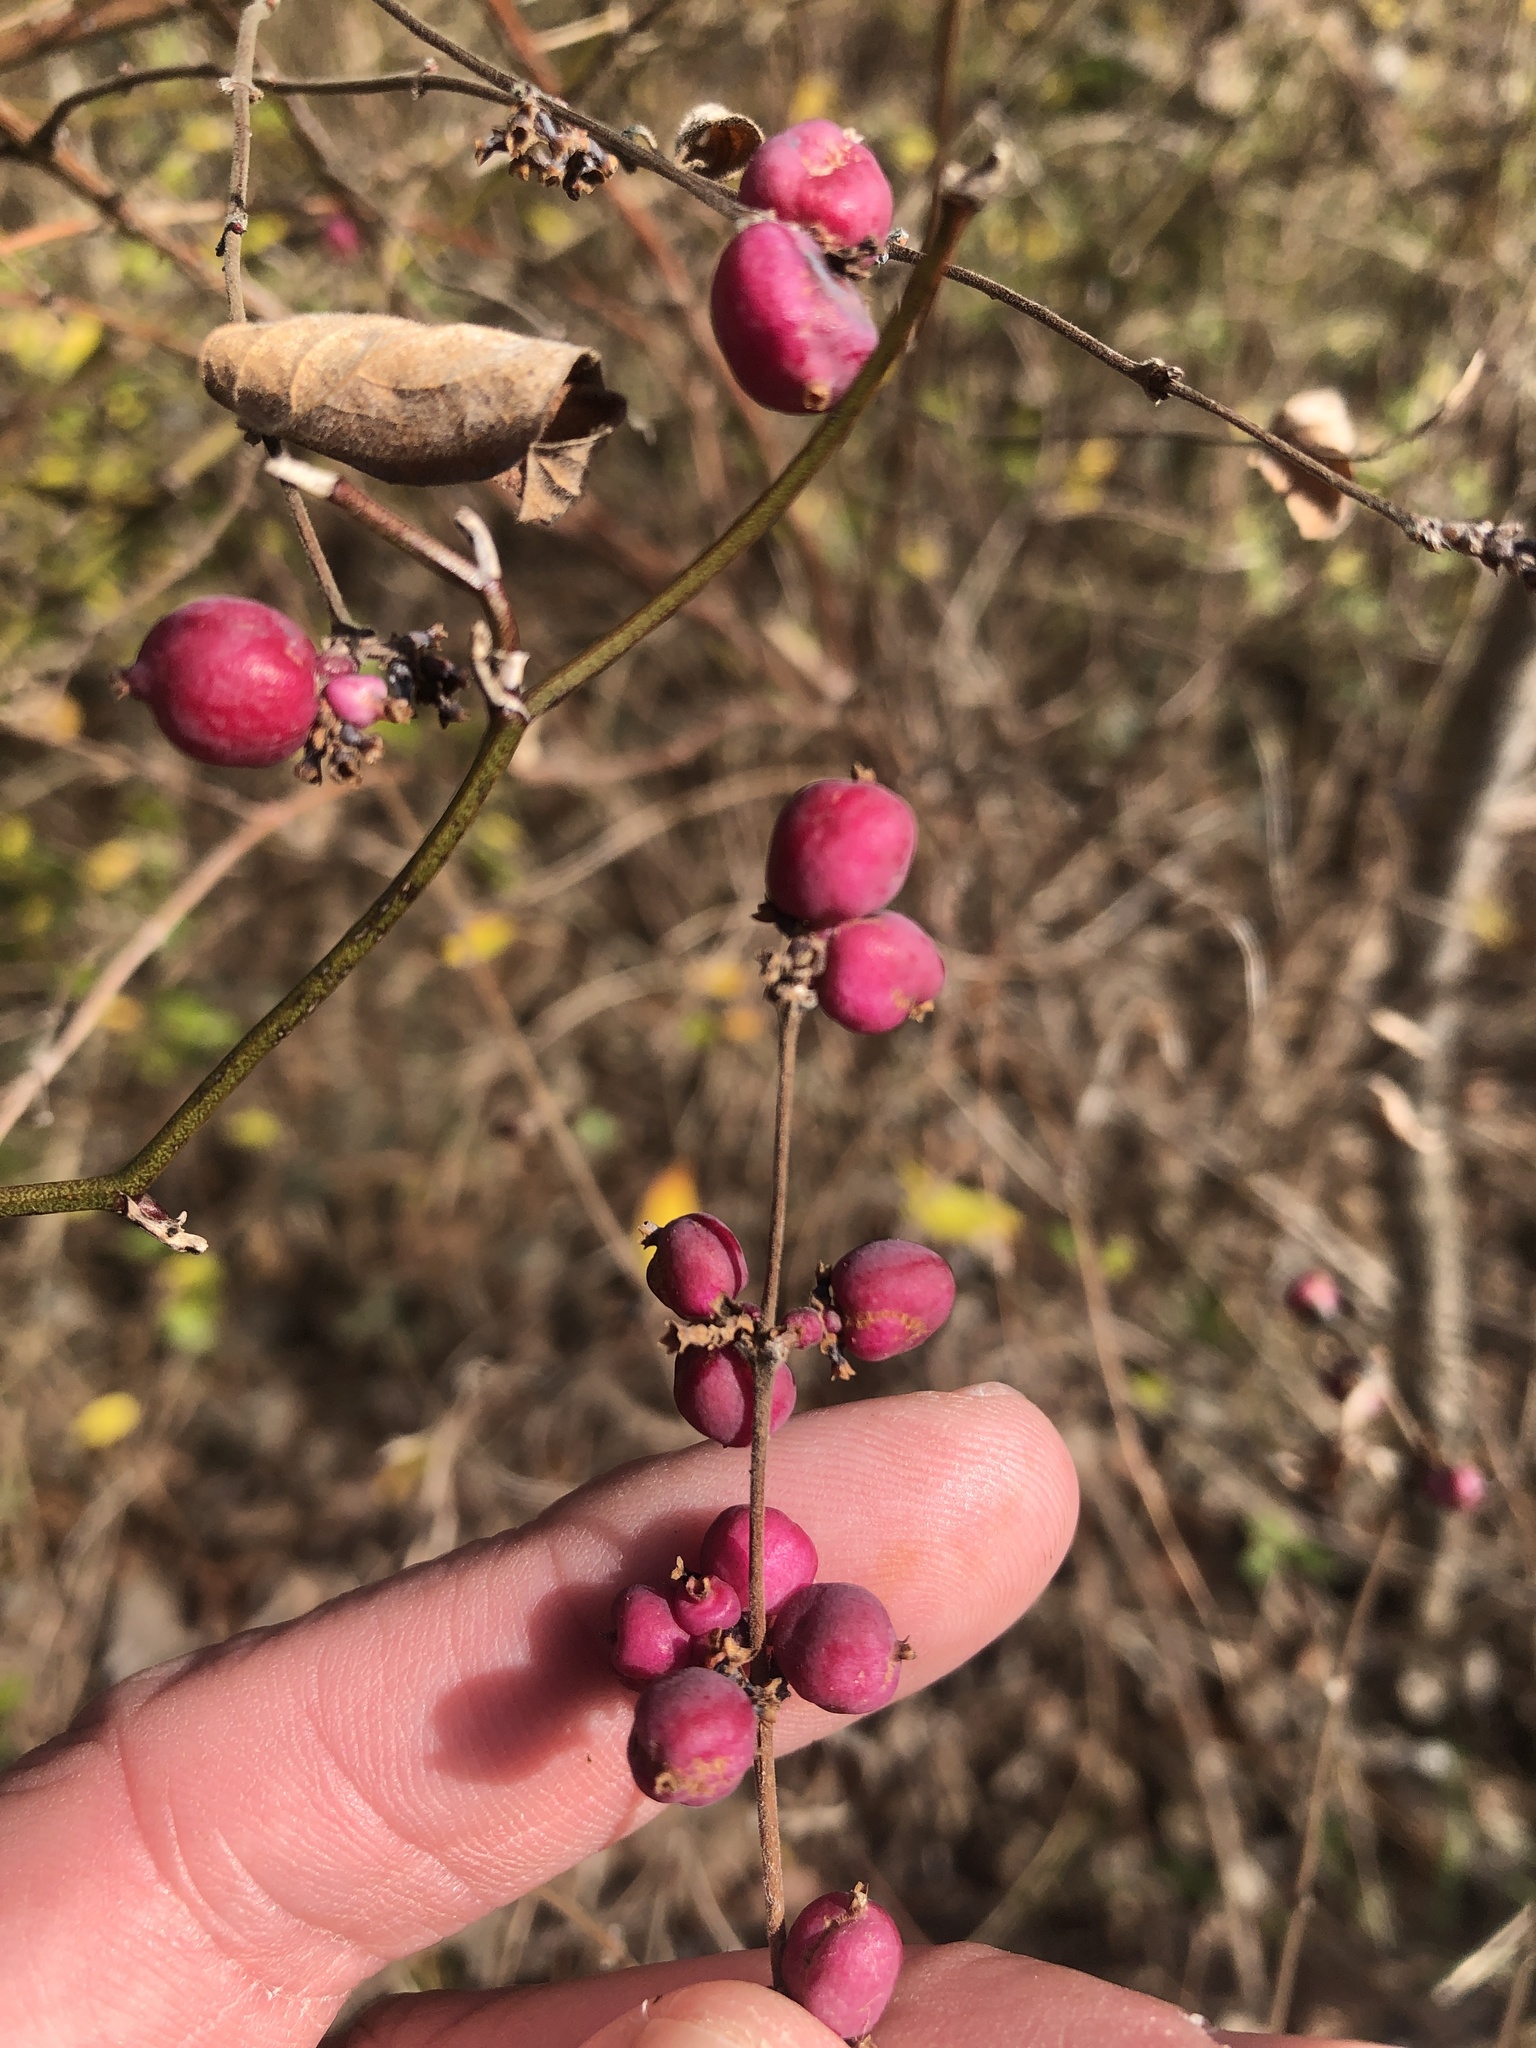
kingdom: Plantae
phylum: Tracheophyta
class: Magnoliopsida
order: Dipsacales
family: Caprifoliaceae
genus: Symphoricarpos
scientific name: Symphoricarpos orbiculatus
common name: Coralberry
